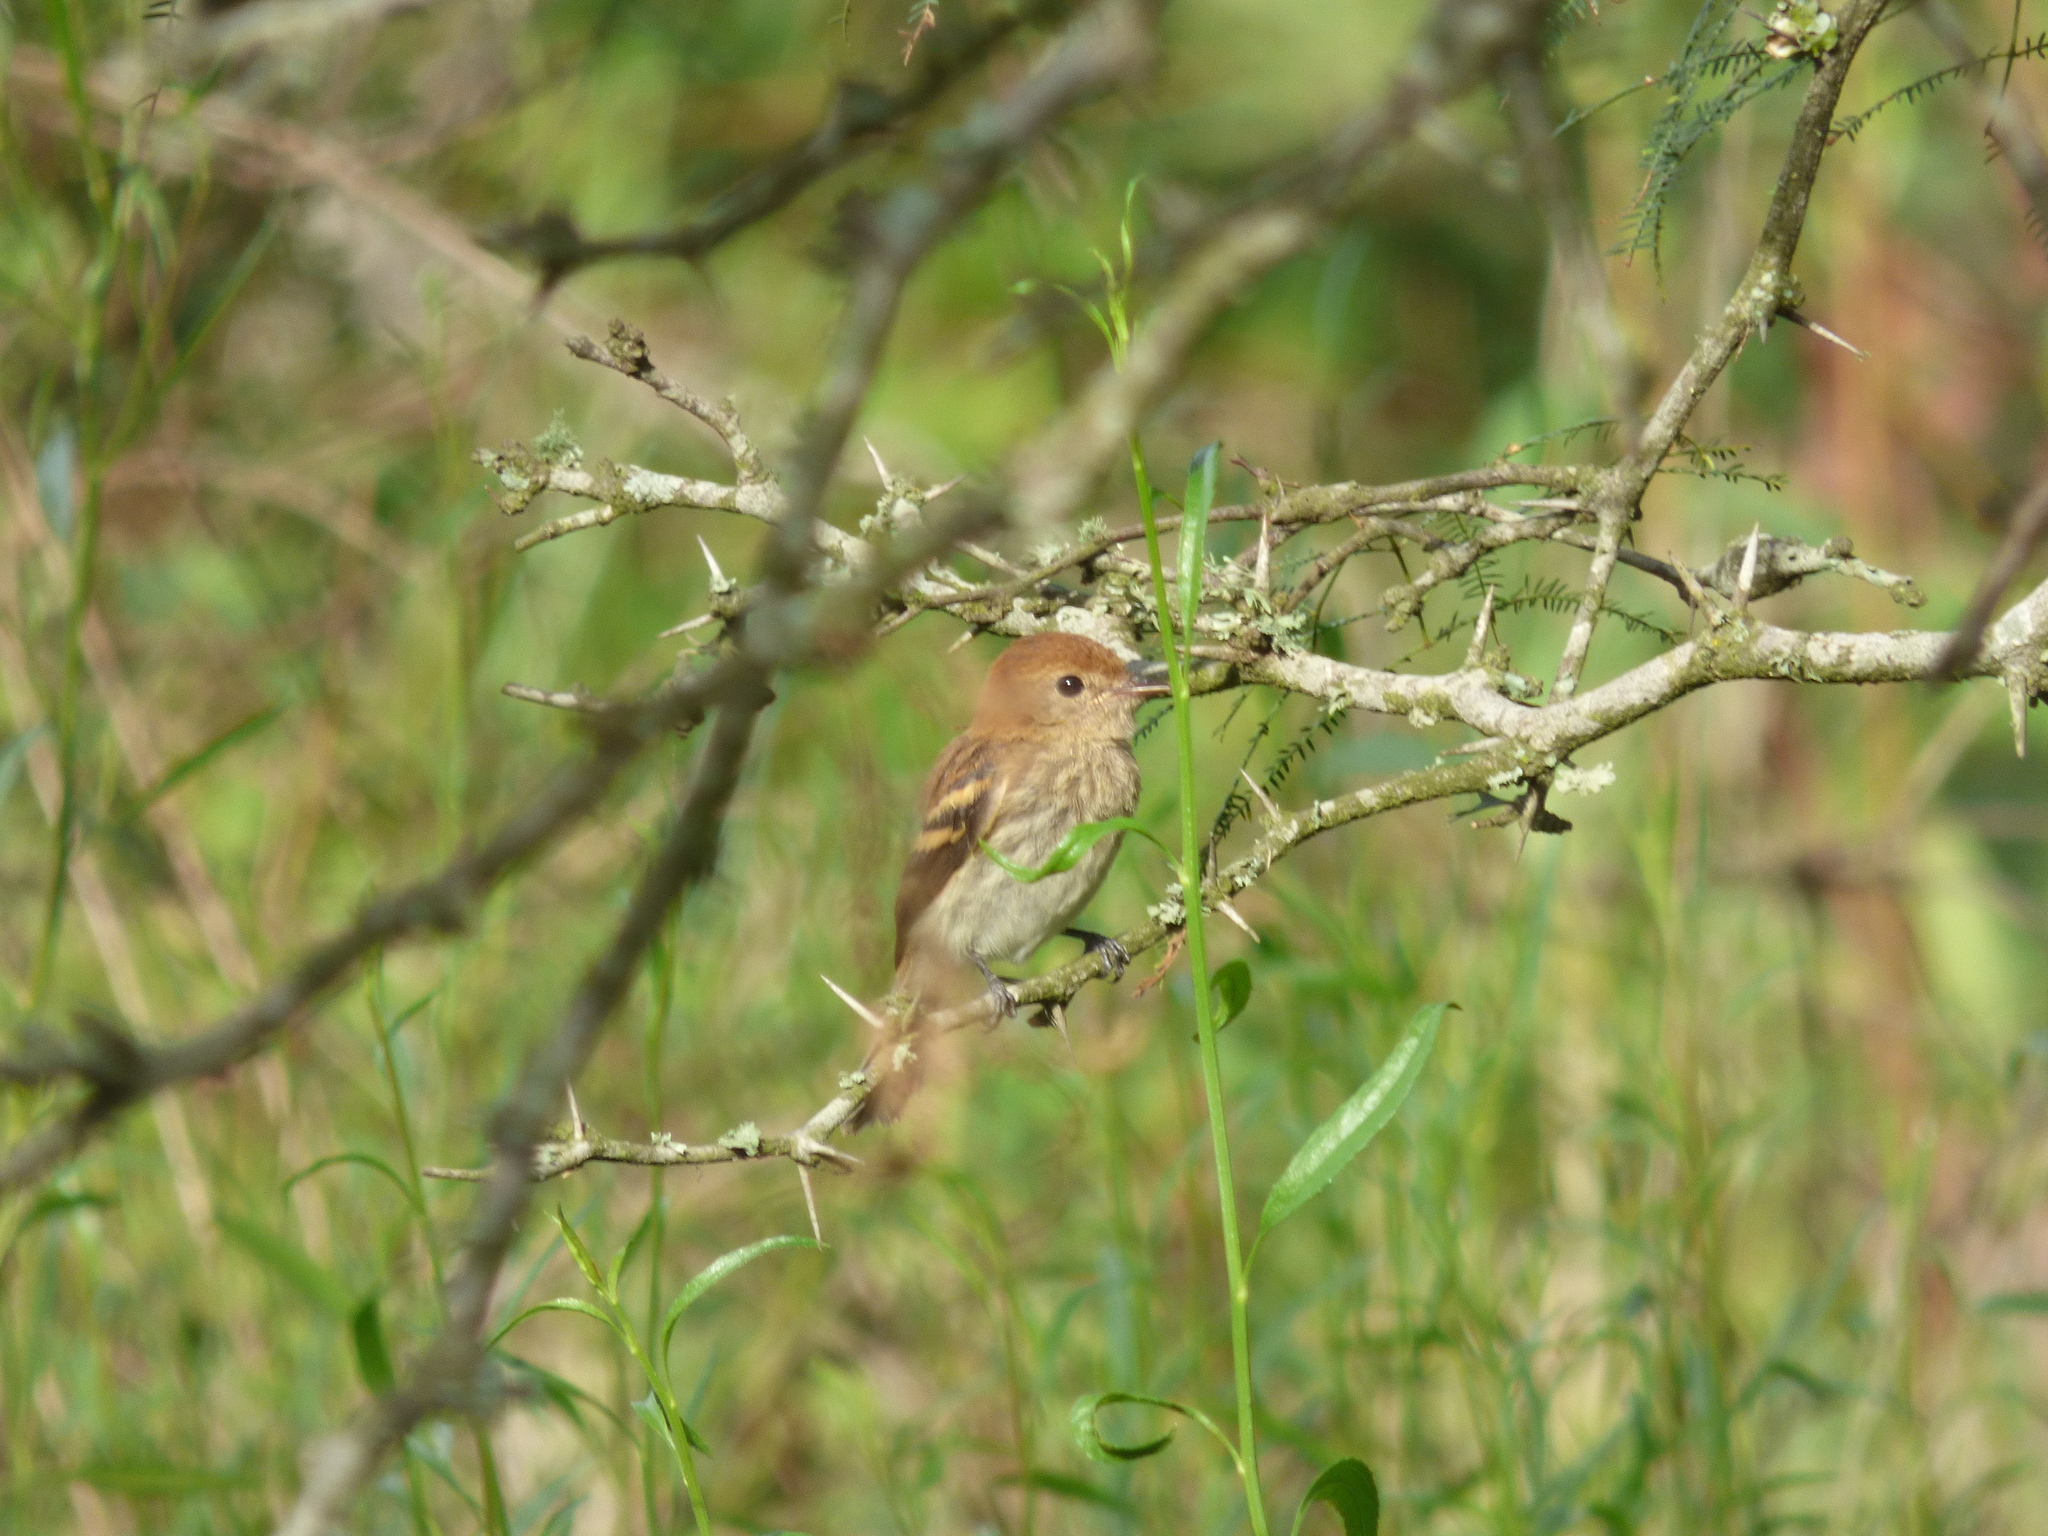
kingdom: Animalia
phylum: Chordata
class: Aves
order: Passeriformes
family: Tyrannidae
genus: Myiophobus
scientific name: Myiophobus fasciatus
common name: Bran-colored flycatcher
